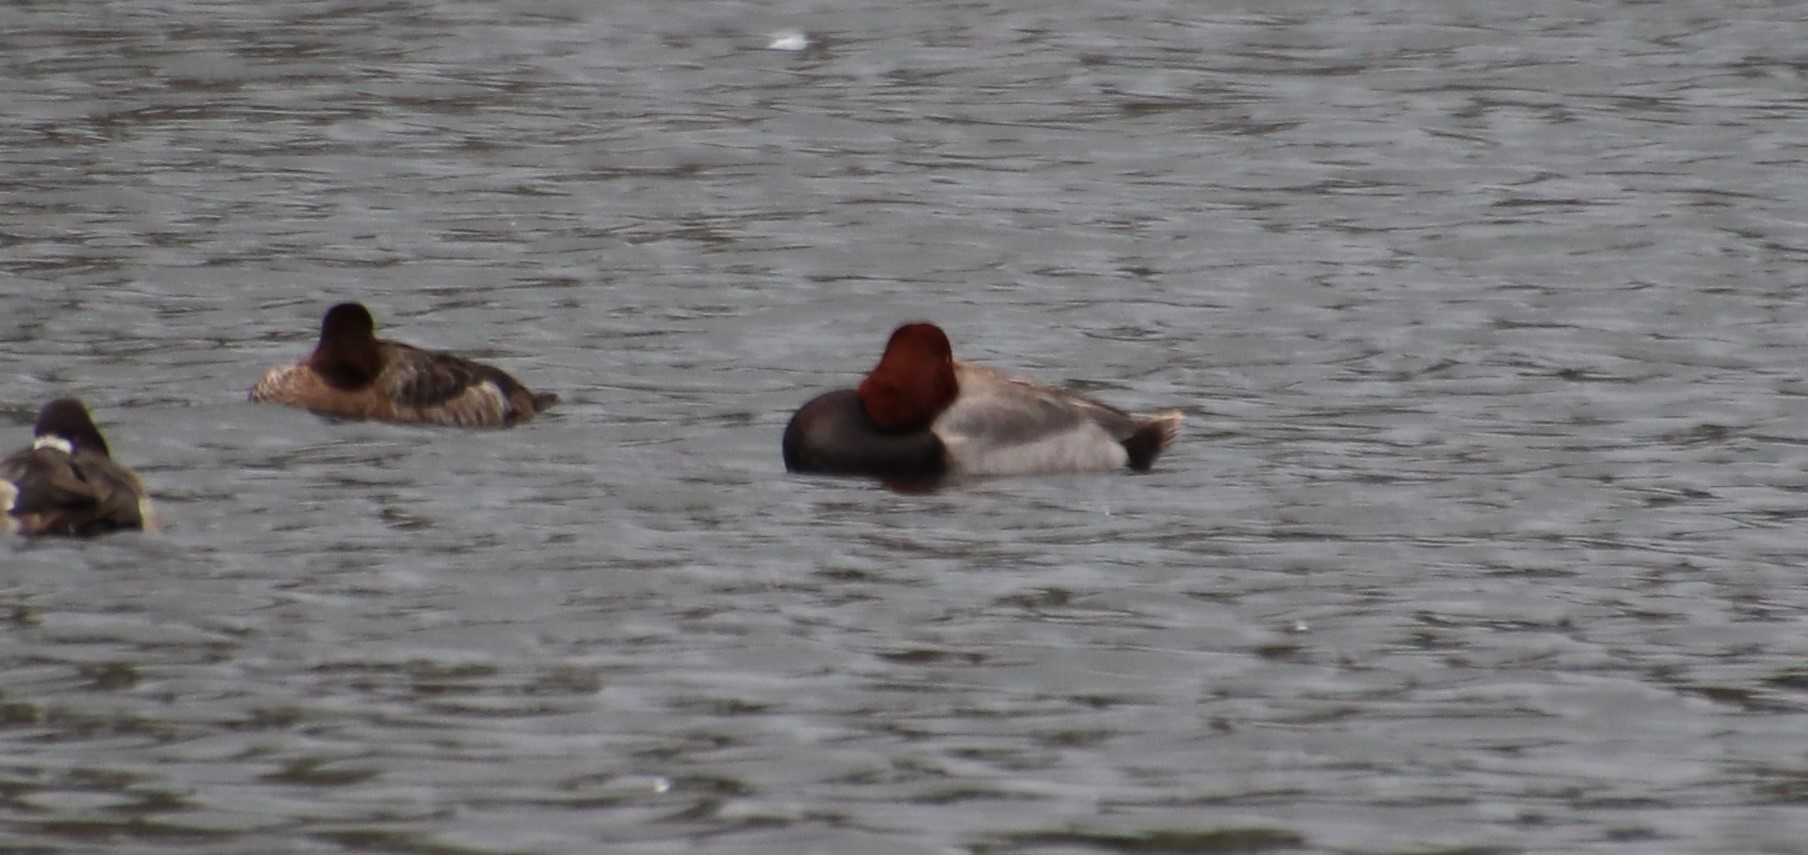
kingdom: Animalia
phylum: Chordata
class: Aves
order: Anseriformes
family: Anatidae
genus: Aythya
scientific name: Aythya americana
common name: Redhead
